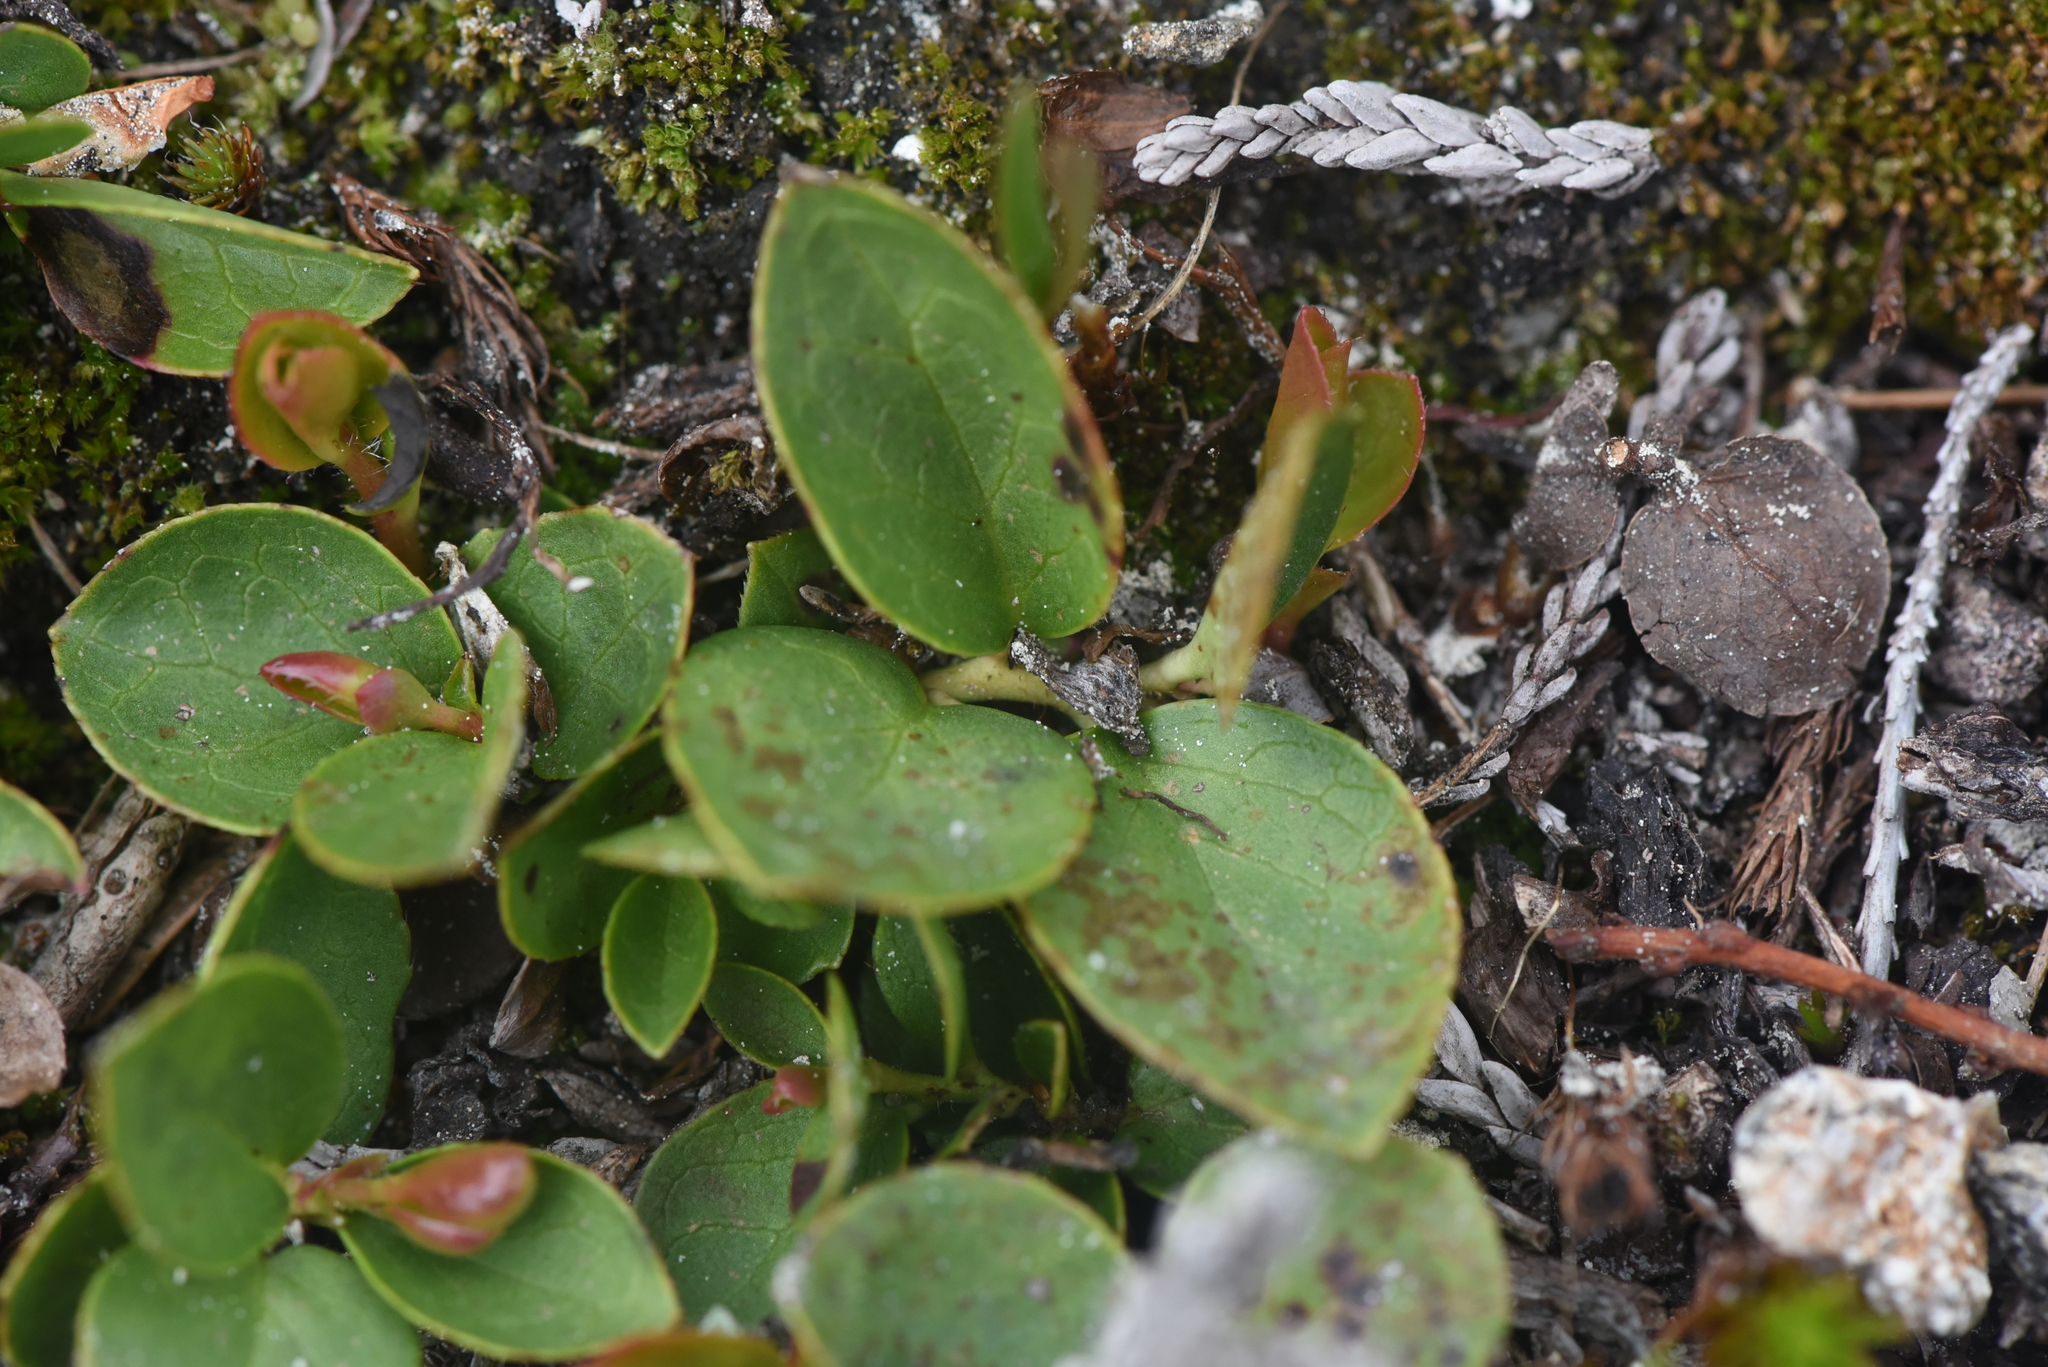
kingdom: Plantae
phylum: Tracheophyta
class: Magnoliopsida
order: Ericales
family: Ericaceae
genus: Gaultheria
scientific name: Gaultheria humifusa
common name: Alpine wintergreen
